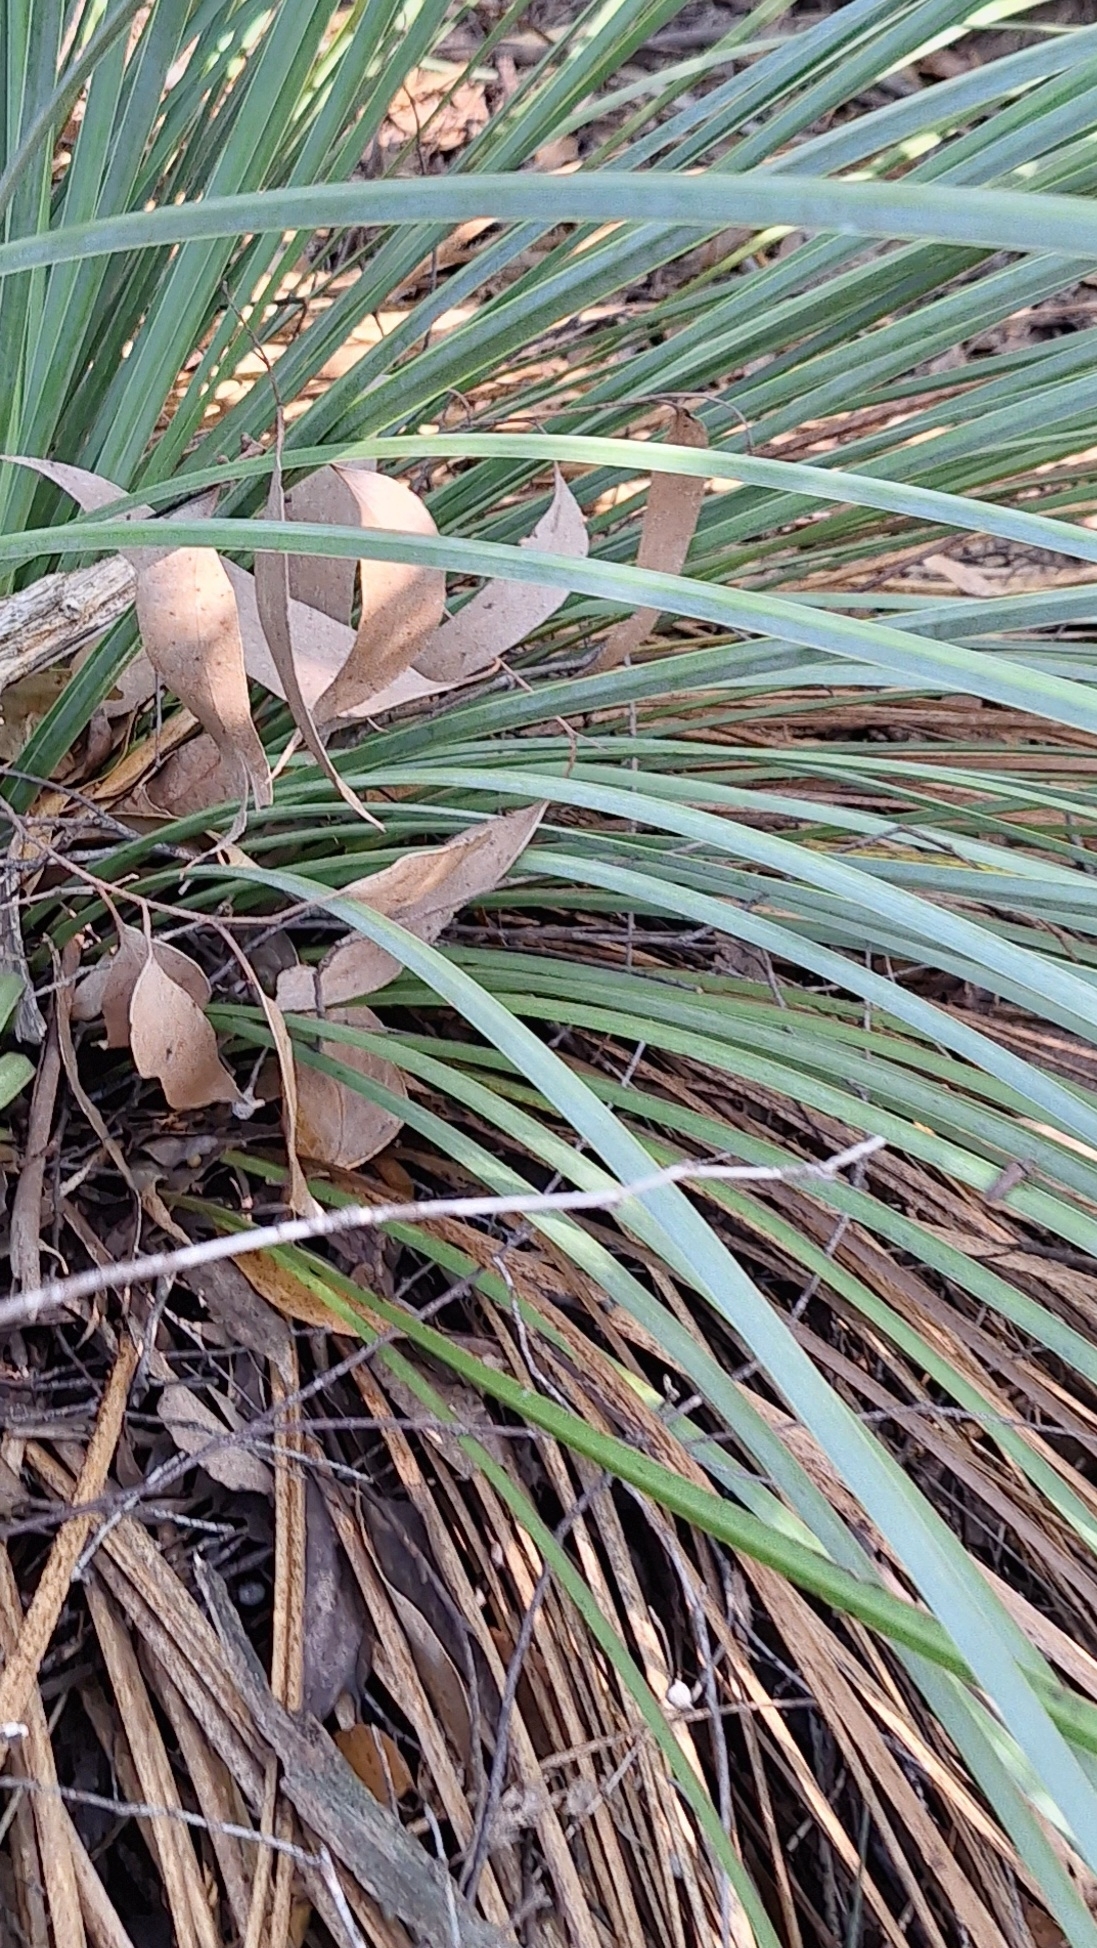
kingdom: Plantae
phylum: Tracheophyta
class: Liliopsida
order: Asparagales
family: Asphodelaceae
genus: Xanthorrhoea
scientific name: Xanthorrhoea semiplana
